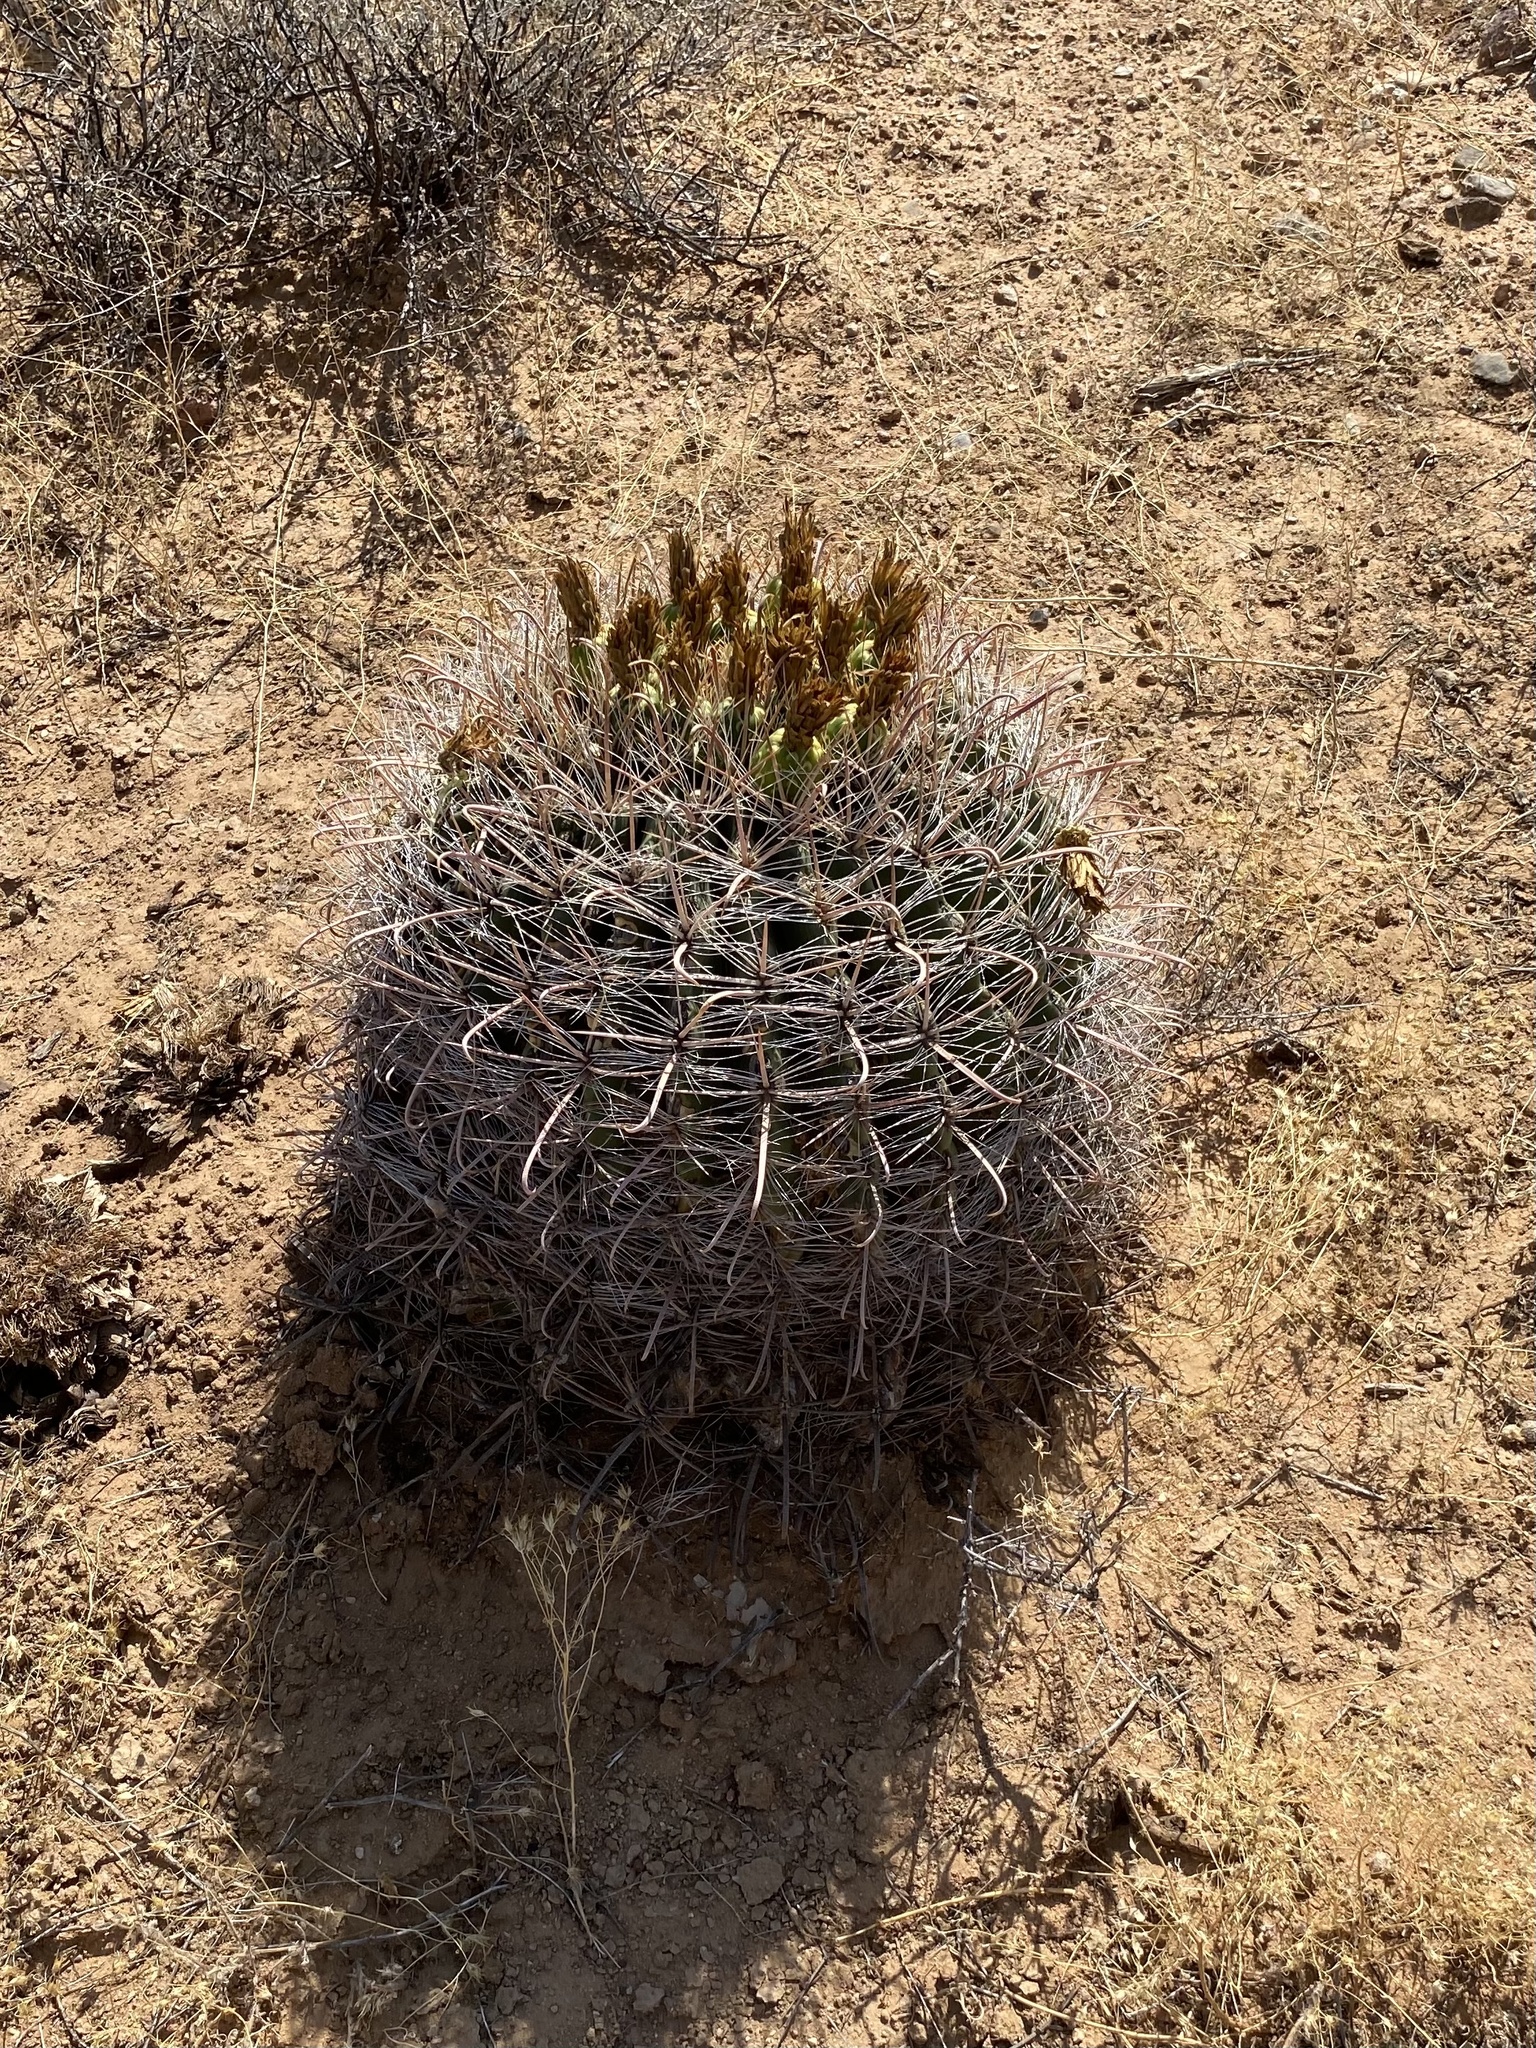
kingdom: Plantae
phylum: Tracheophyta
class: Magnoliopsida
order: Caryophyllales
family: Cactaceae
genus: Ferocactus
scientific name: Ferocactus wislizeni
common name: Candy barrel cactus
